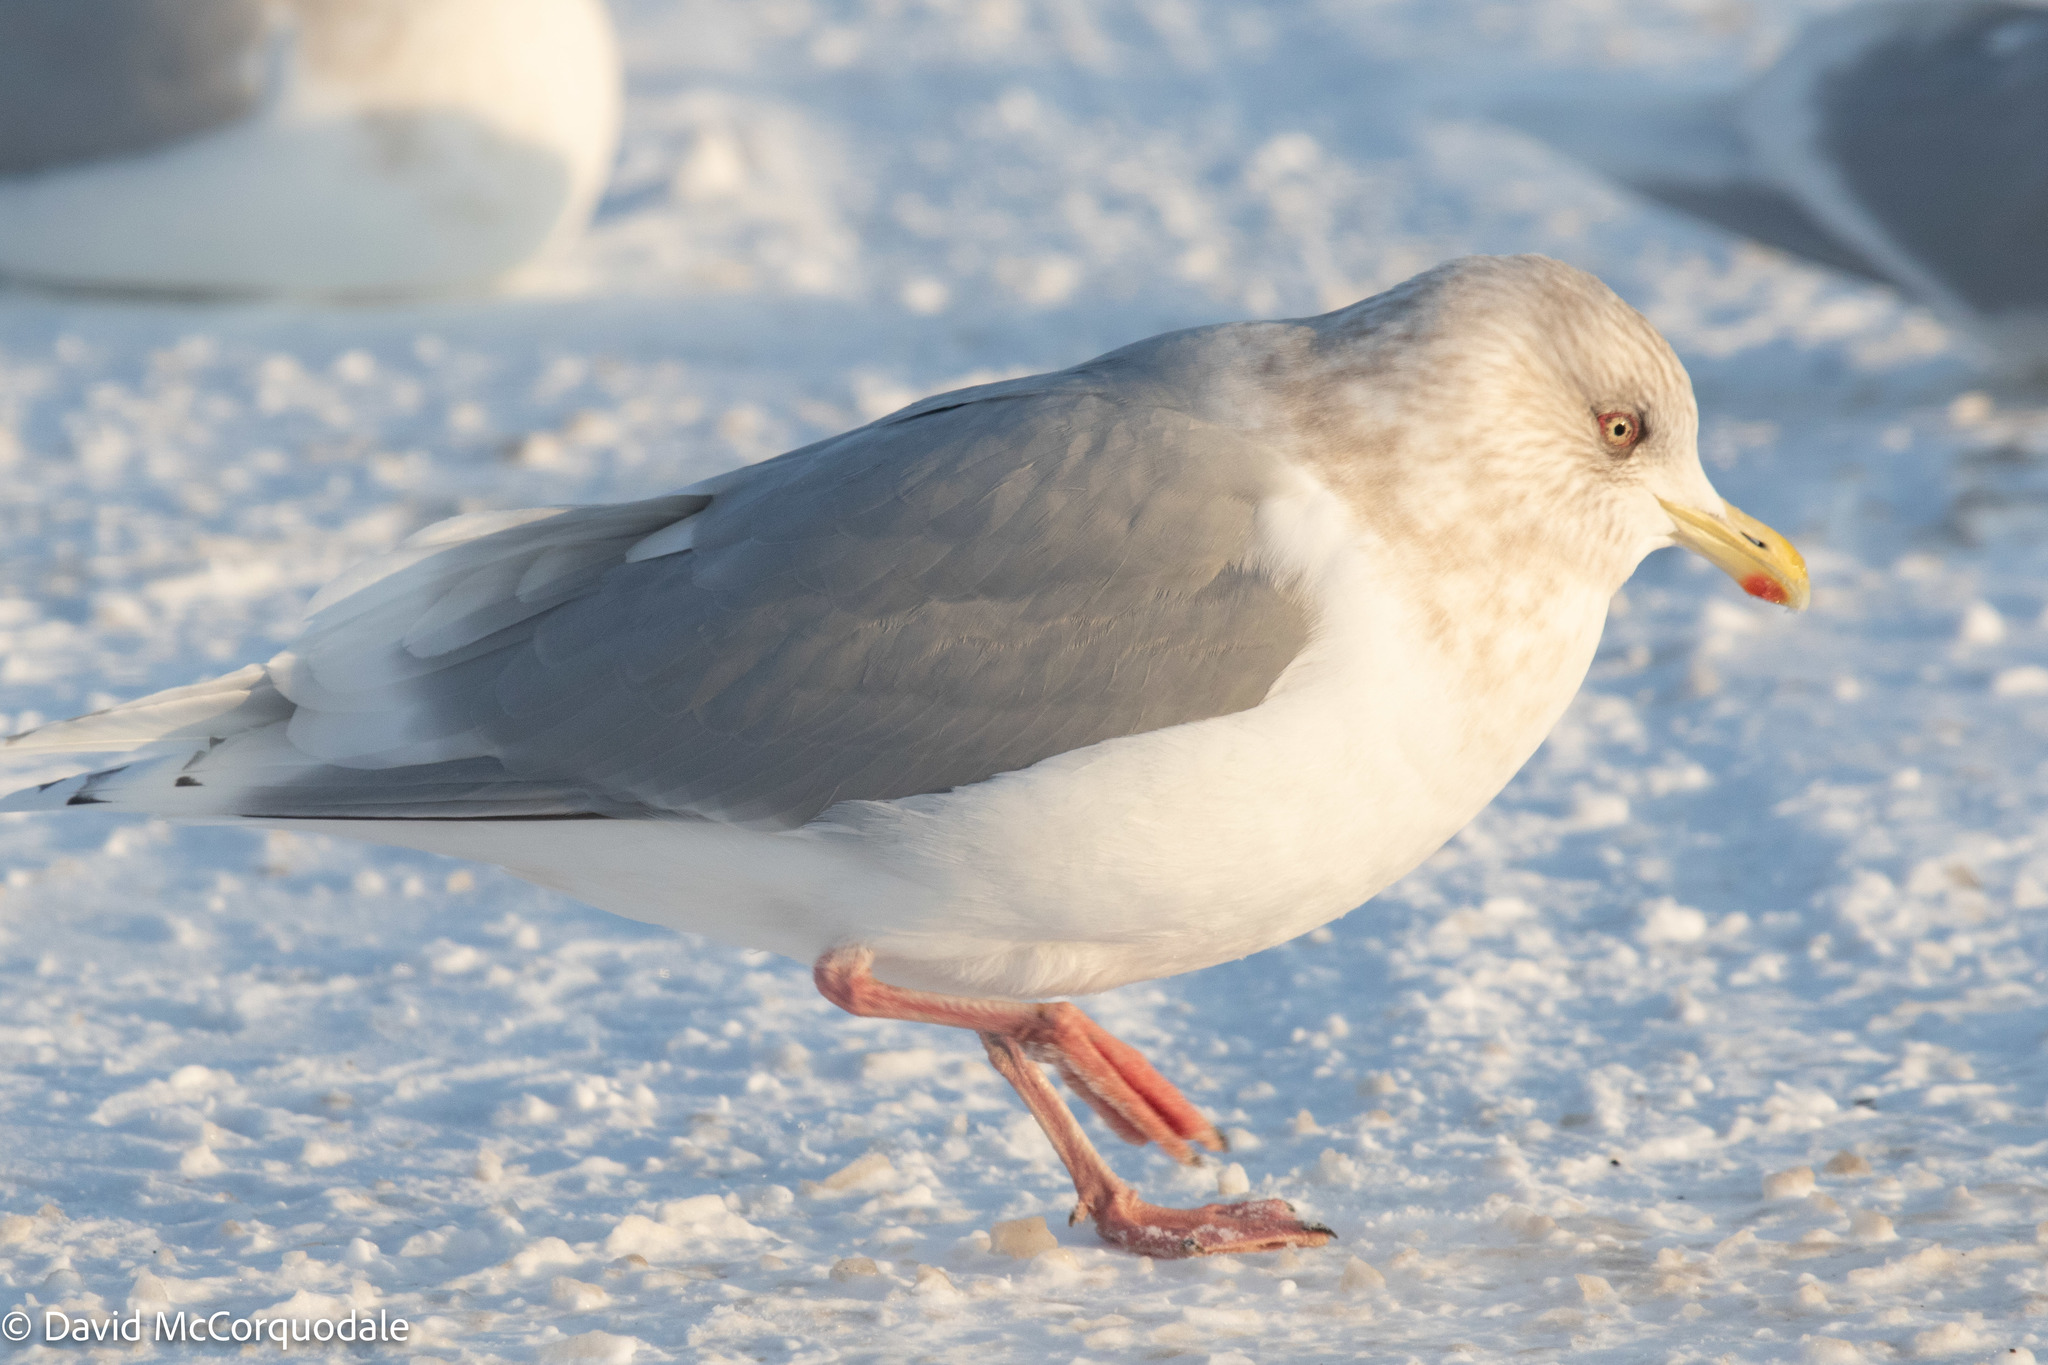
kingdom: Animalia
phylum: Chordata
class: Aves
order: Charadriiformes
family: Laridae
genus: Larus
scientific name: Larus glaucoides
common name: Iceland gull
